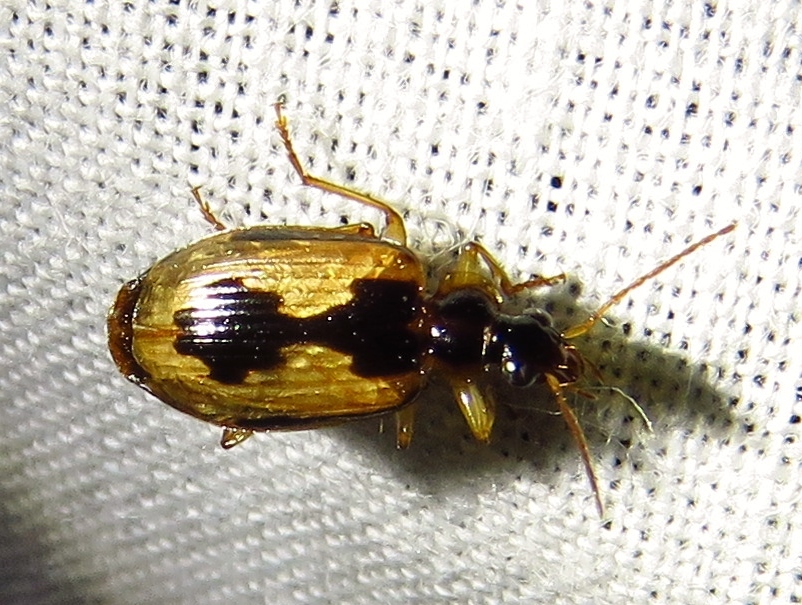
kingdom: Animalia
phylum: Arthropoda
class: Insecta
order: Coleoptera
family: Carabidae
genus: Lebia
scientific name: Lebia fuscata
